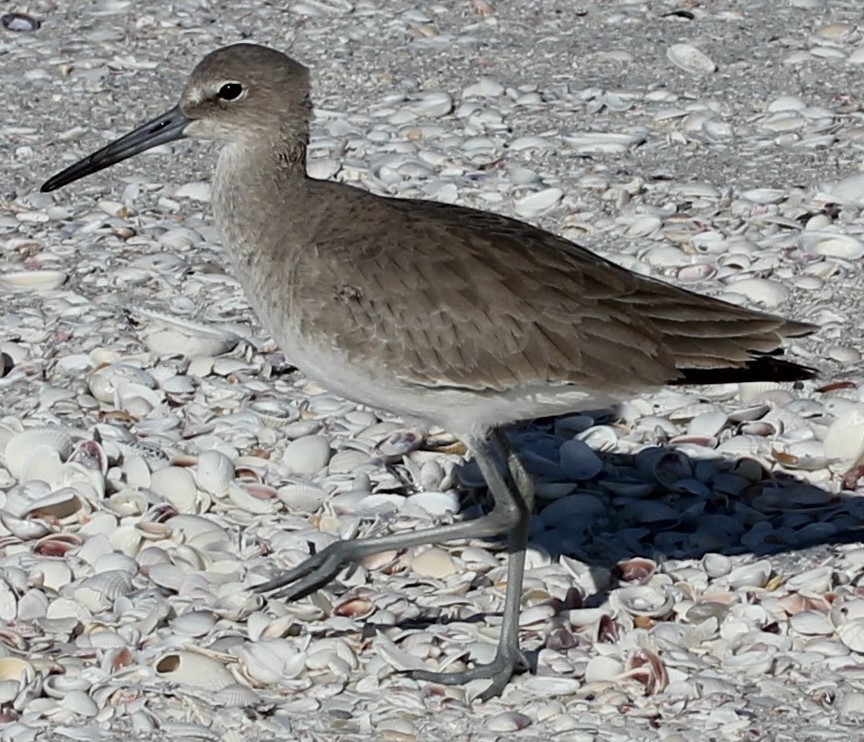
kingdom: Animalia
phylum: Chordata
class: Aves
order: Charadriiformes
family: Scolopacidae
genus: Tringa
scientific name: Tringa semipalmata
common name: Willet
